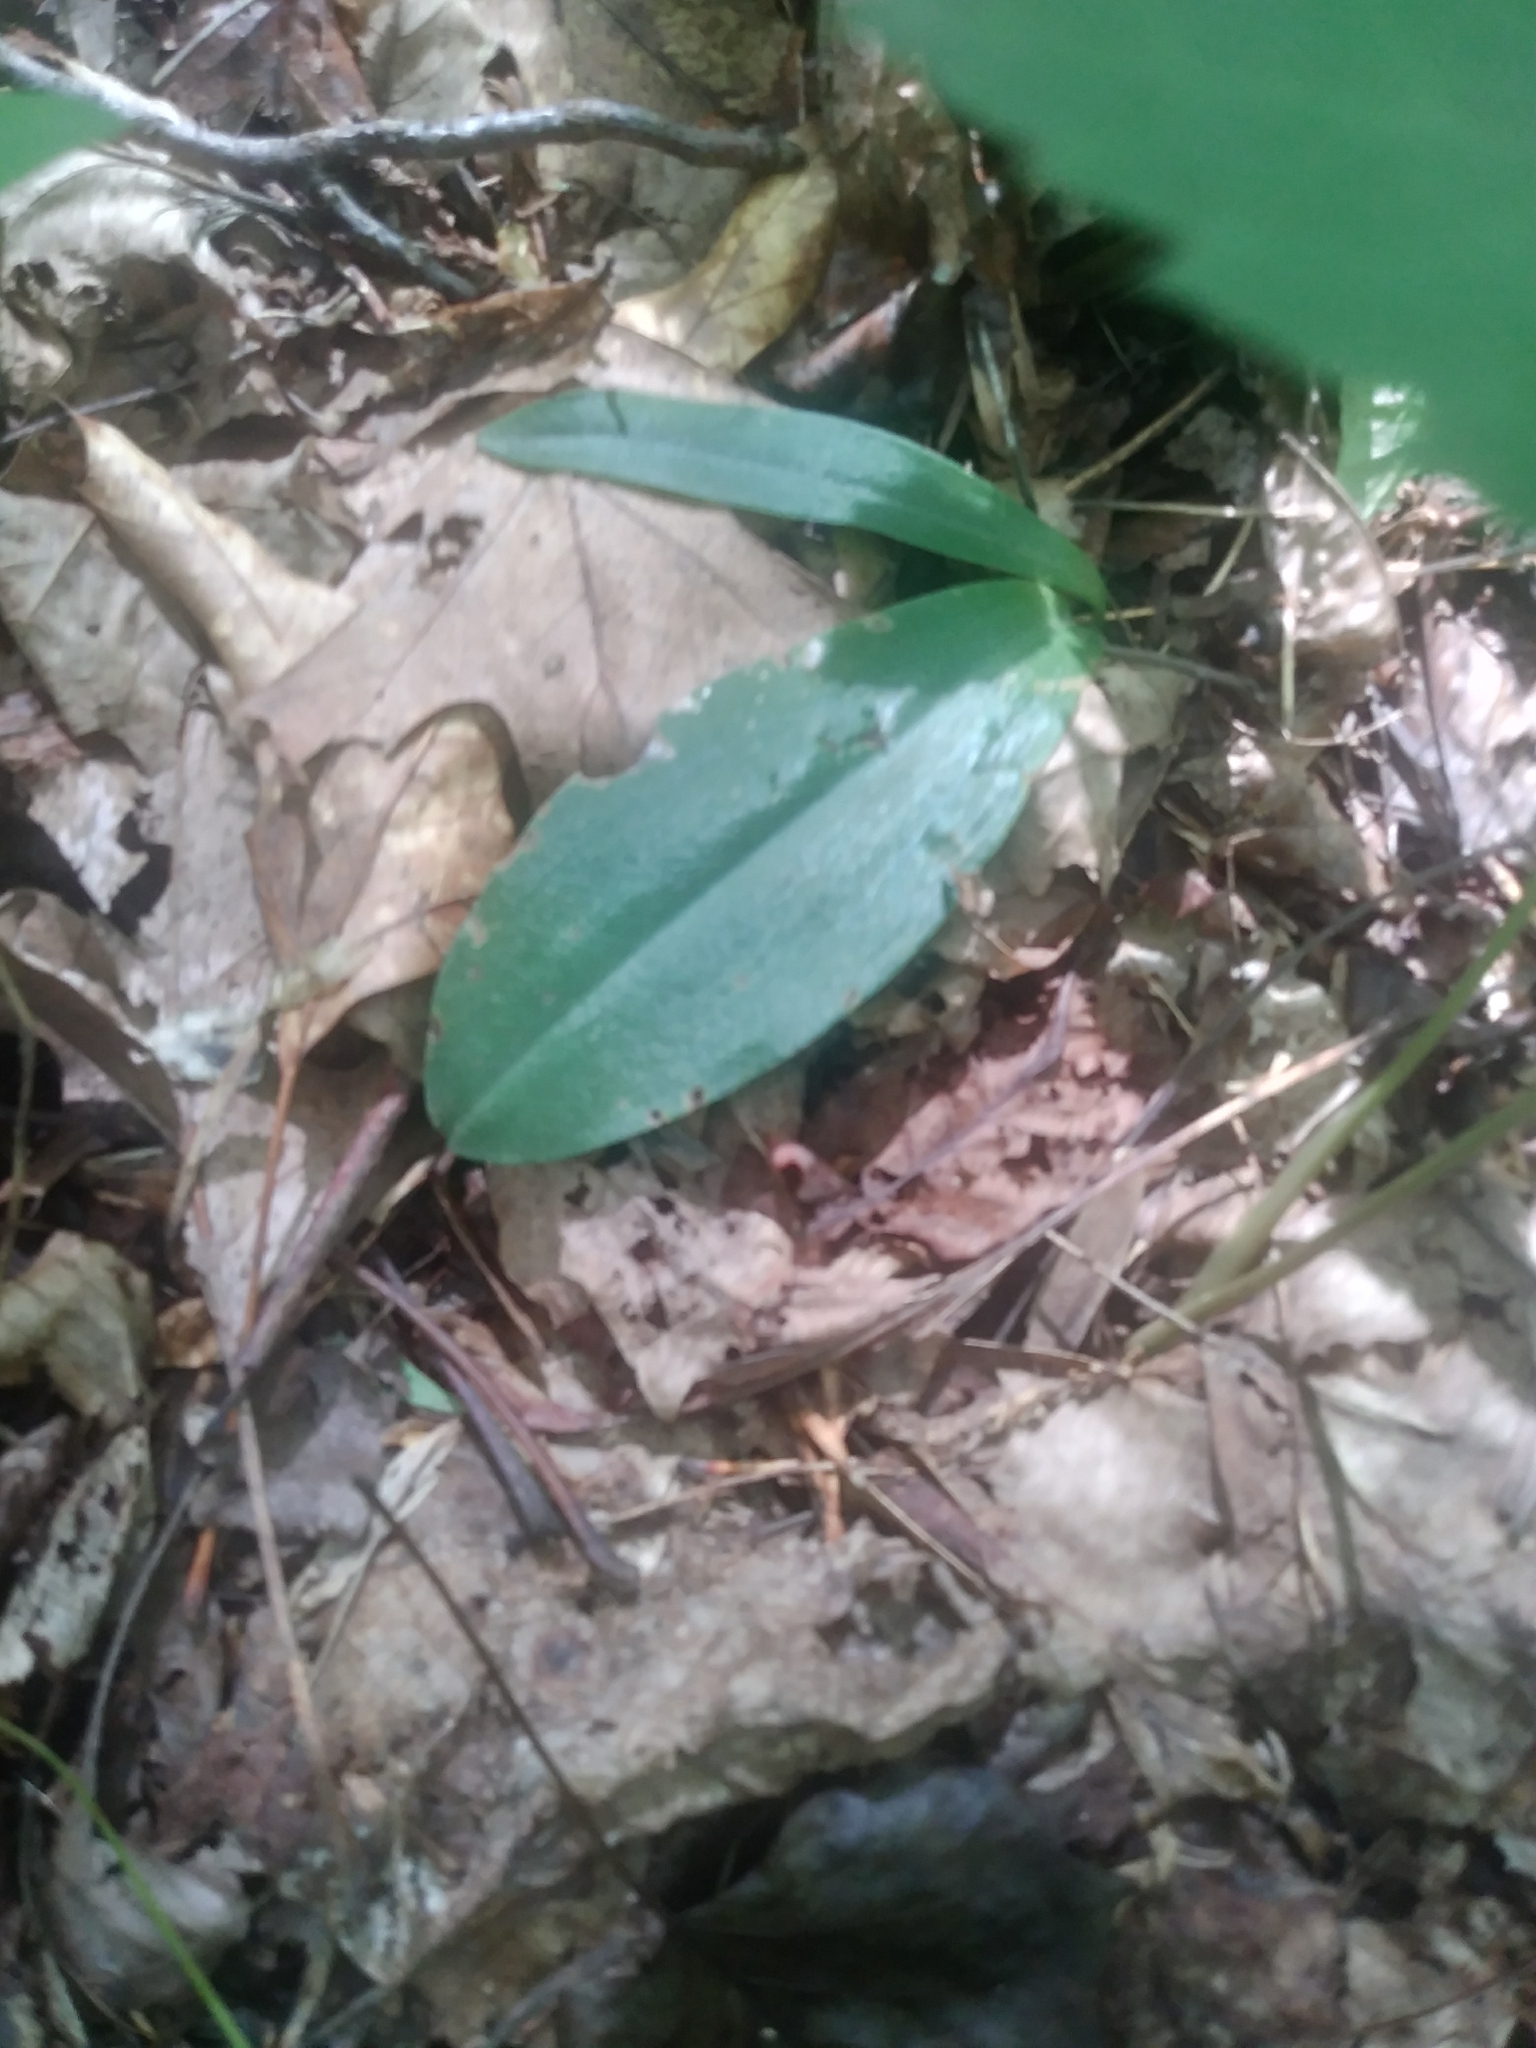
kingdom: Plantae
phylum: Tracheophyta
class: Liliopsida
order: Asparagales
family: Orchidaceae
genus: Galearis
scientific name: Galearis spectabilis
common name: Purple-hooded orchis
